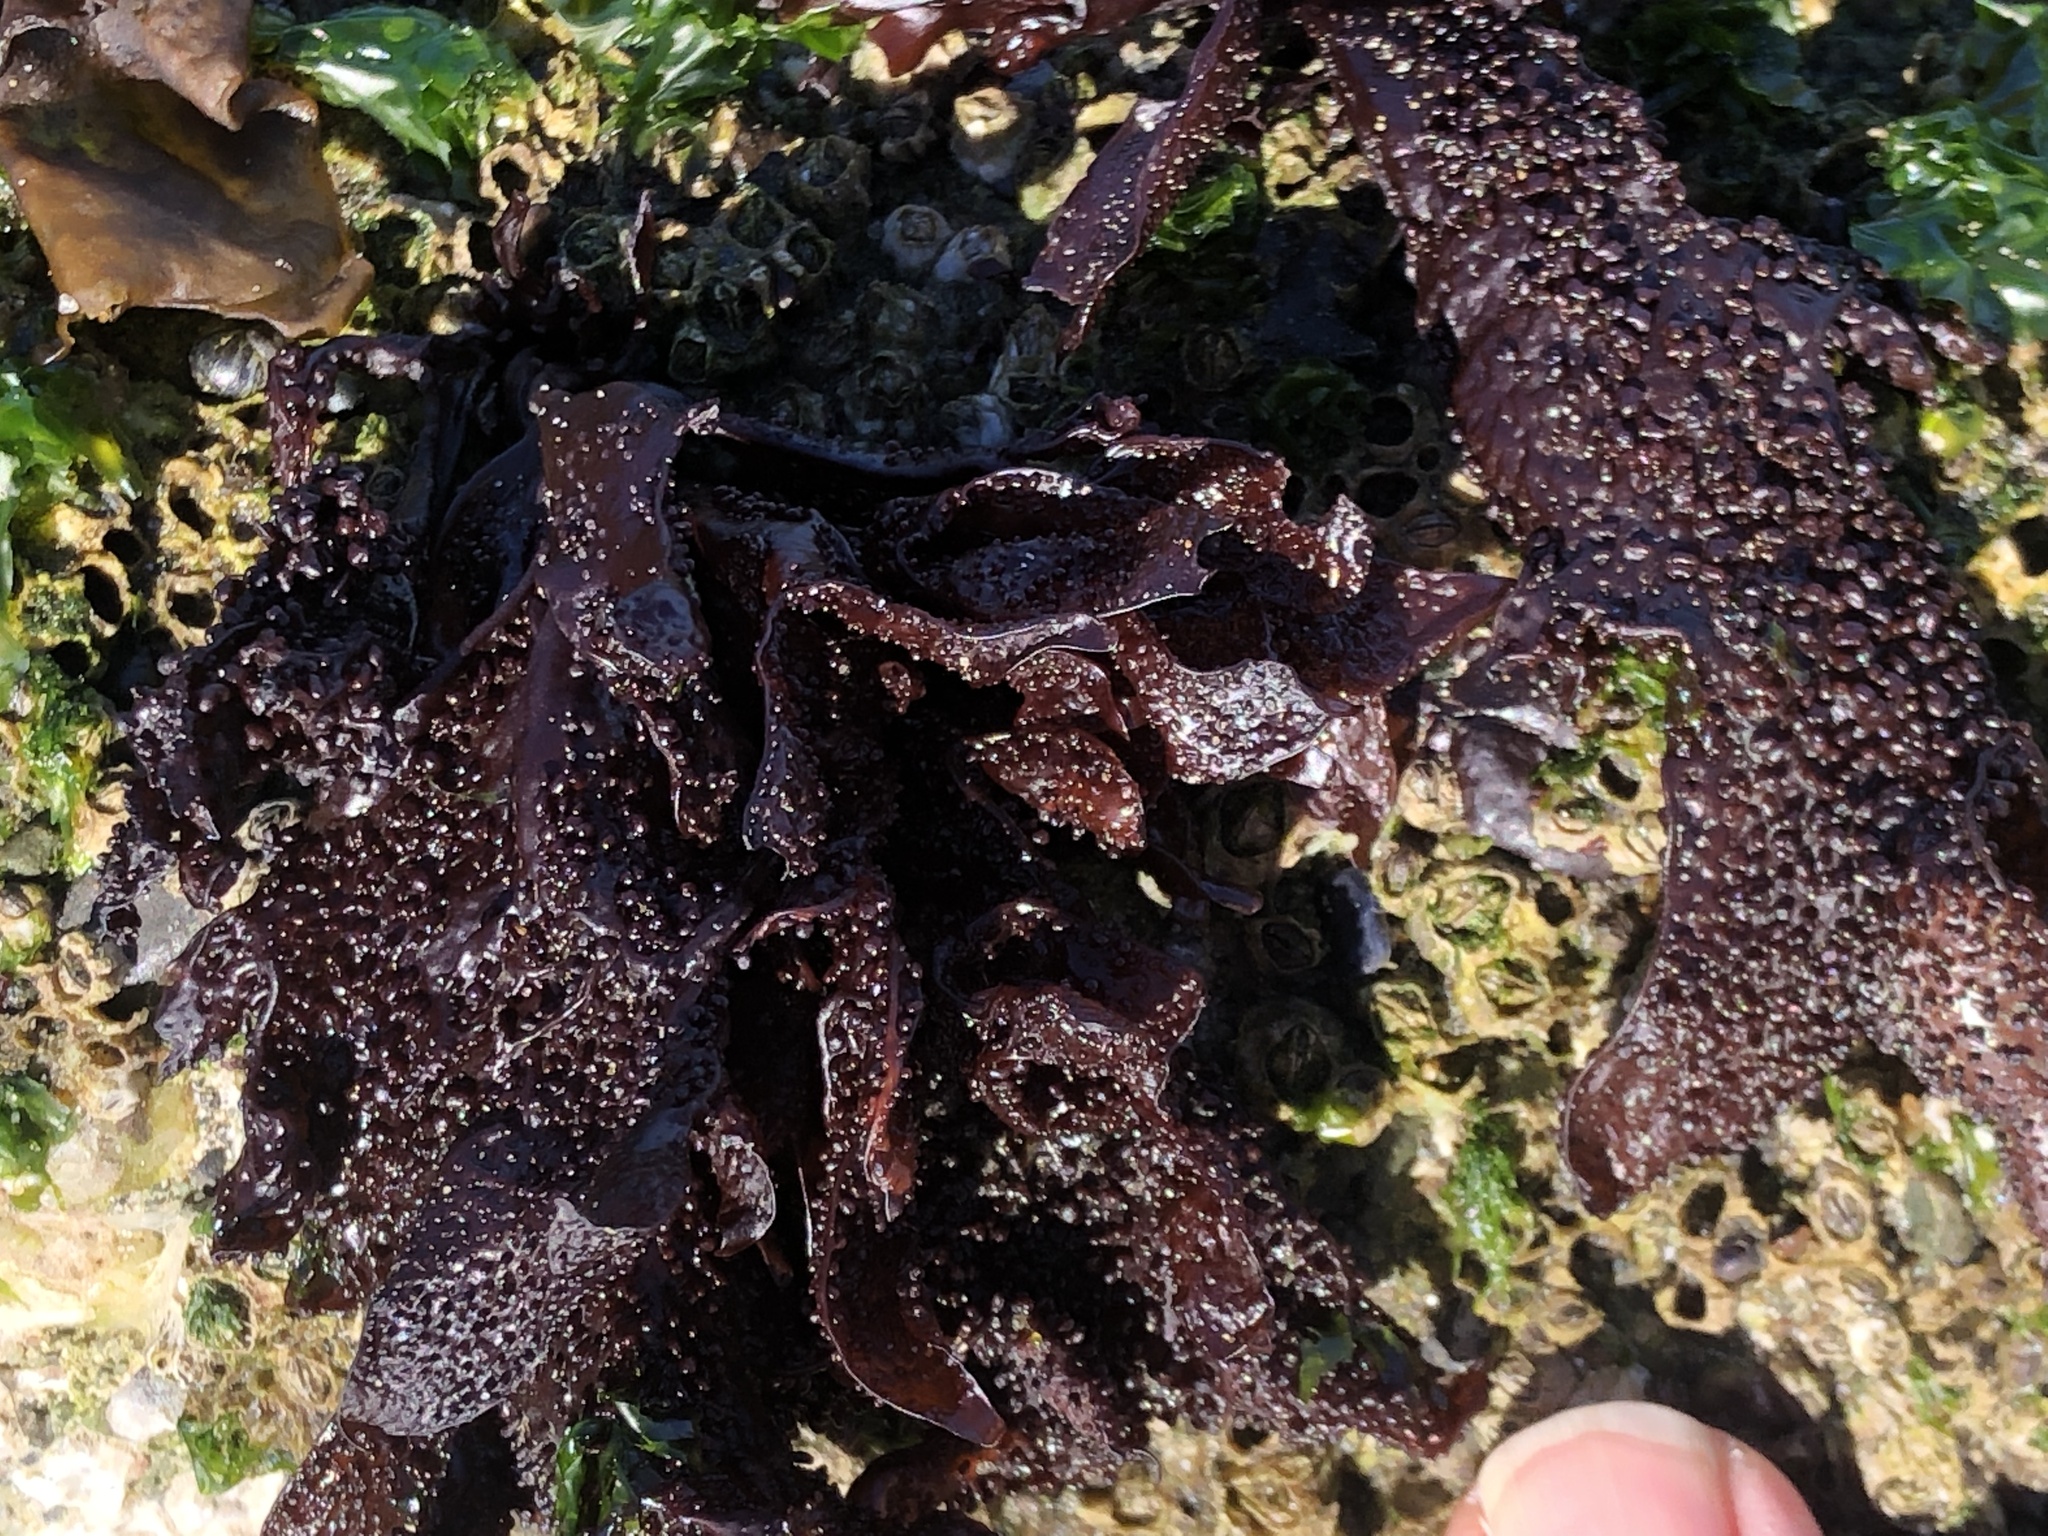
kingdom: Plantae
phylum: Rhodophyta
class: Florideophyceae
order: Gigartinales
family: Phyllophoraceae
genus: Mastocarpus
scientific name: Mastocarpus papillatus
